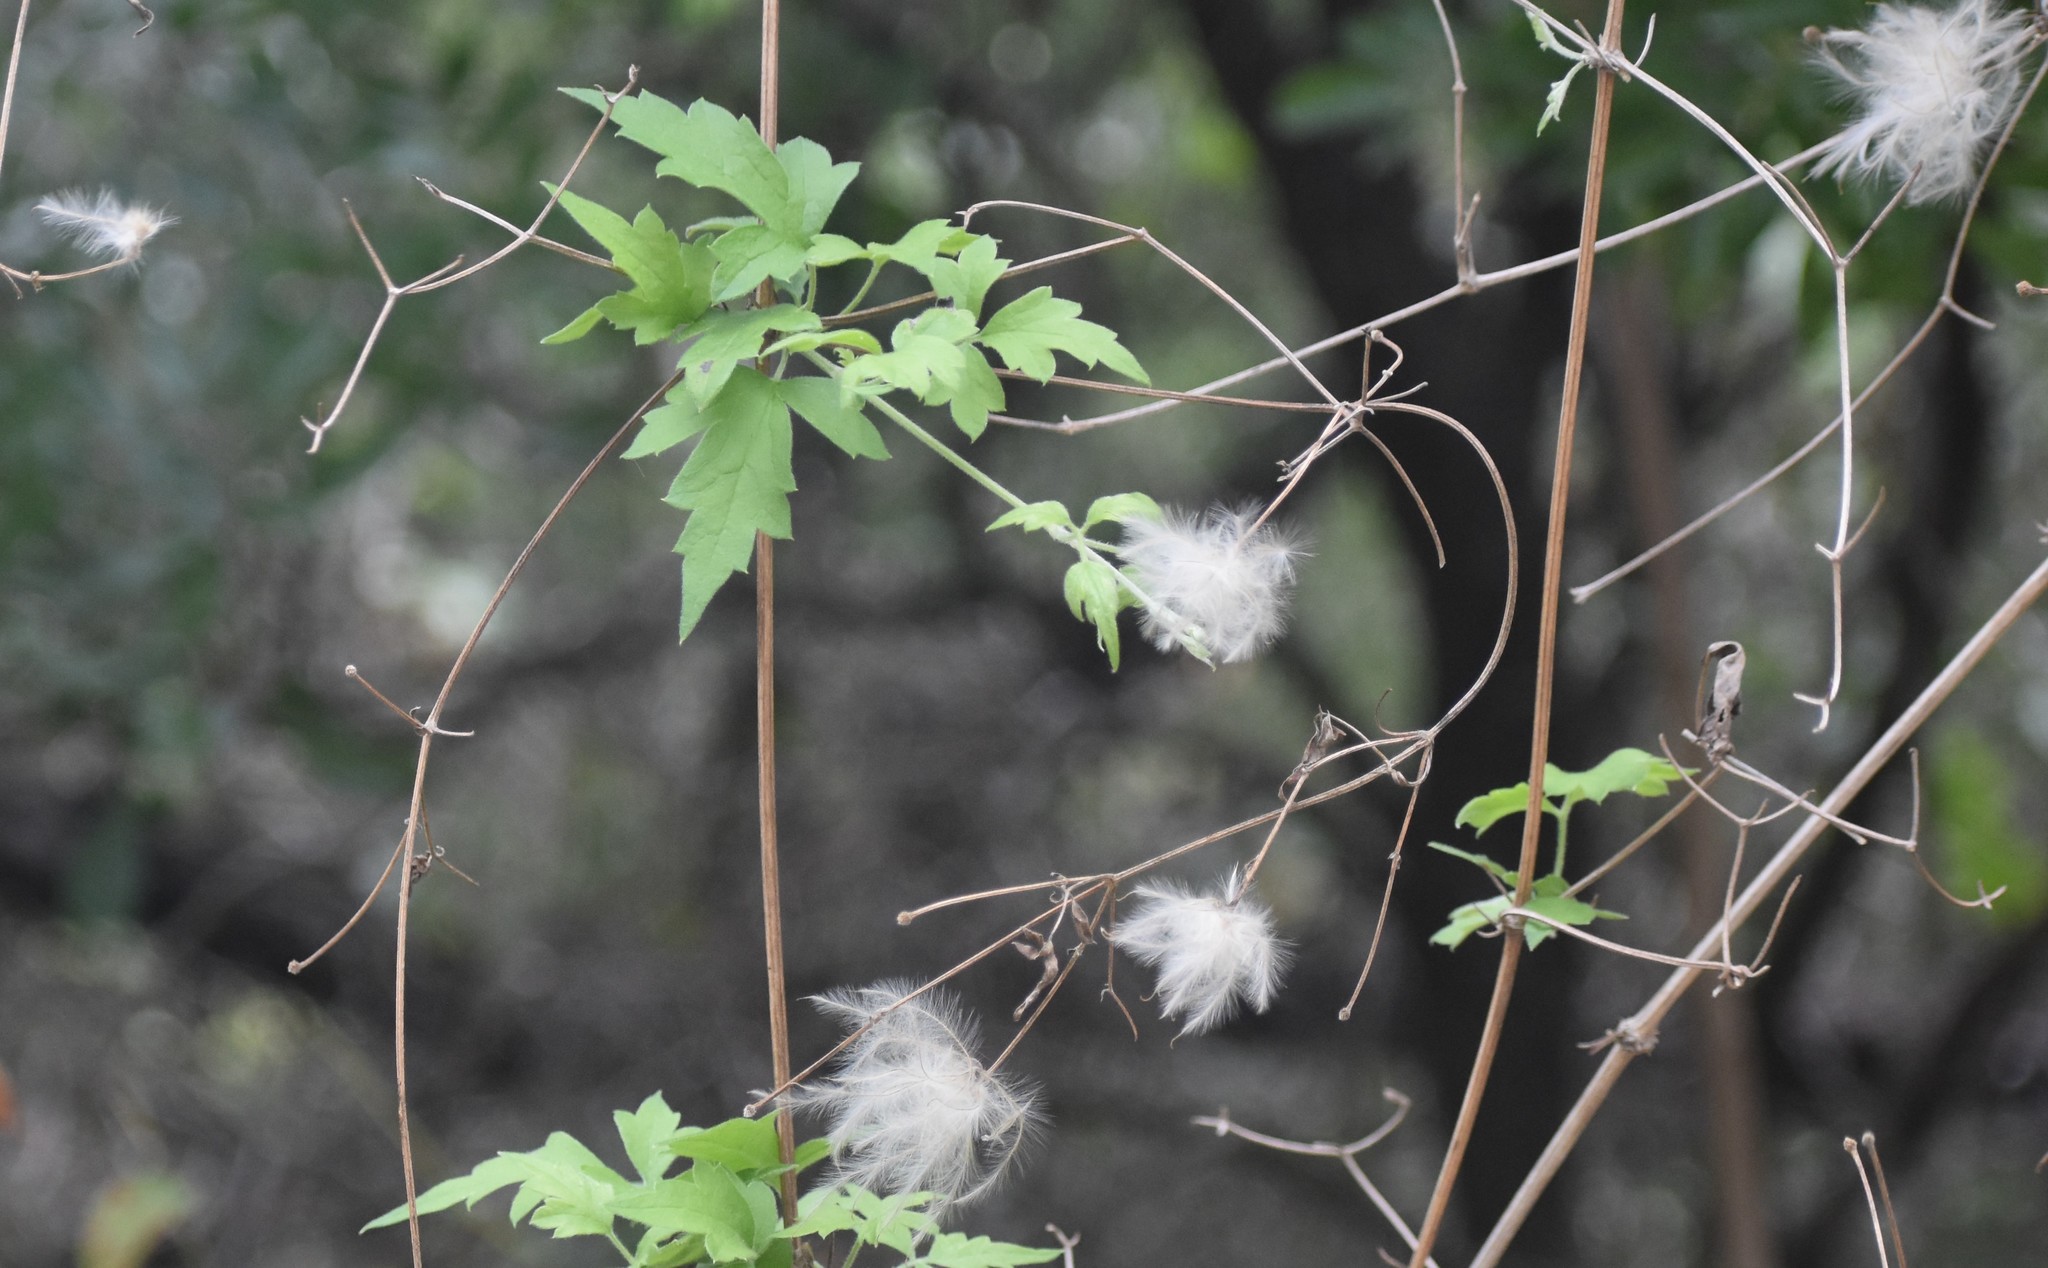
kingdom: Plantae
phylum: Tracheophyta
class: Magnoliopsida
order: Ranunculales
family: Ranunculaceae
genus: Clematis
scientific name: Clematis drummondii
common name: Texas virgin's bower
